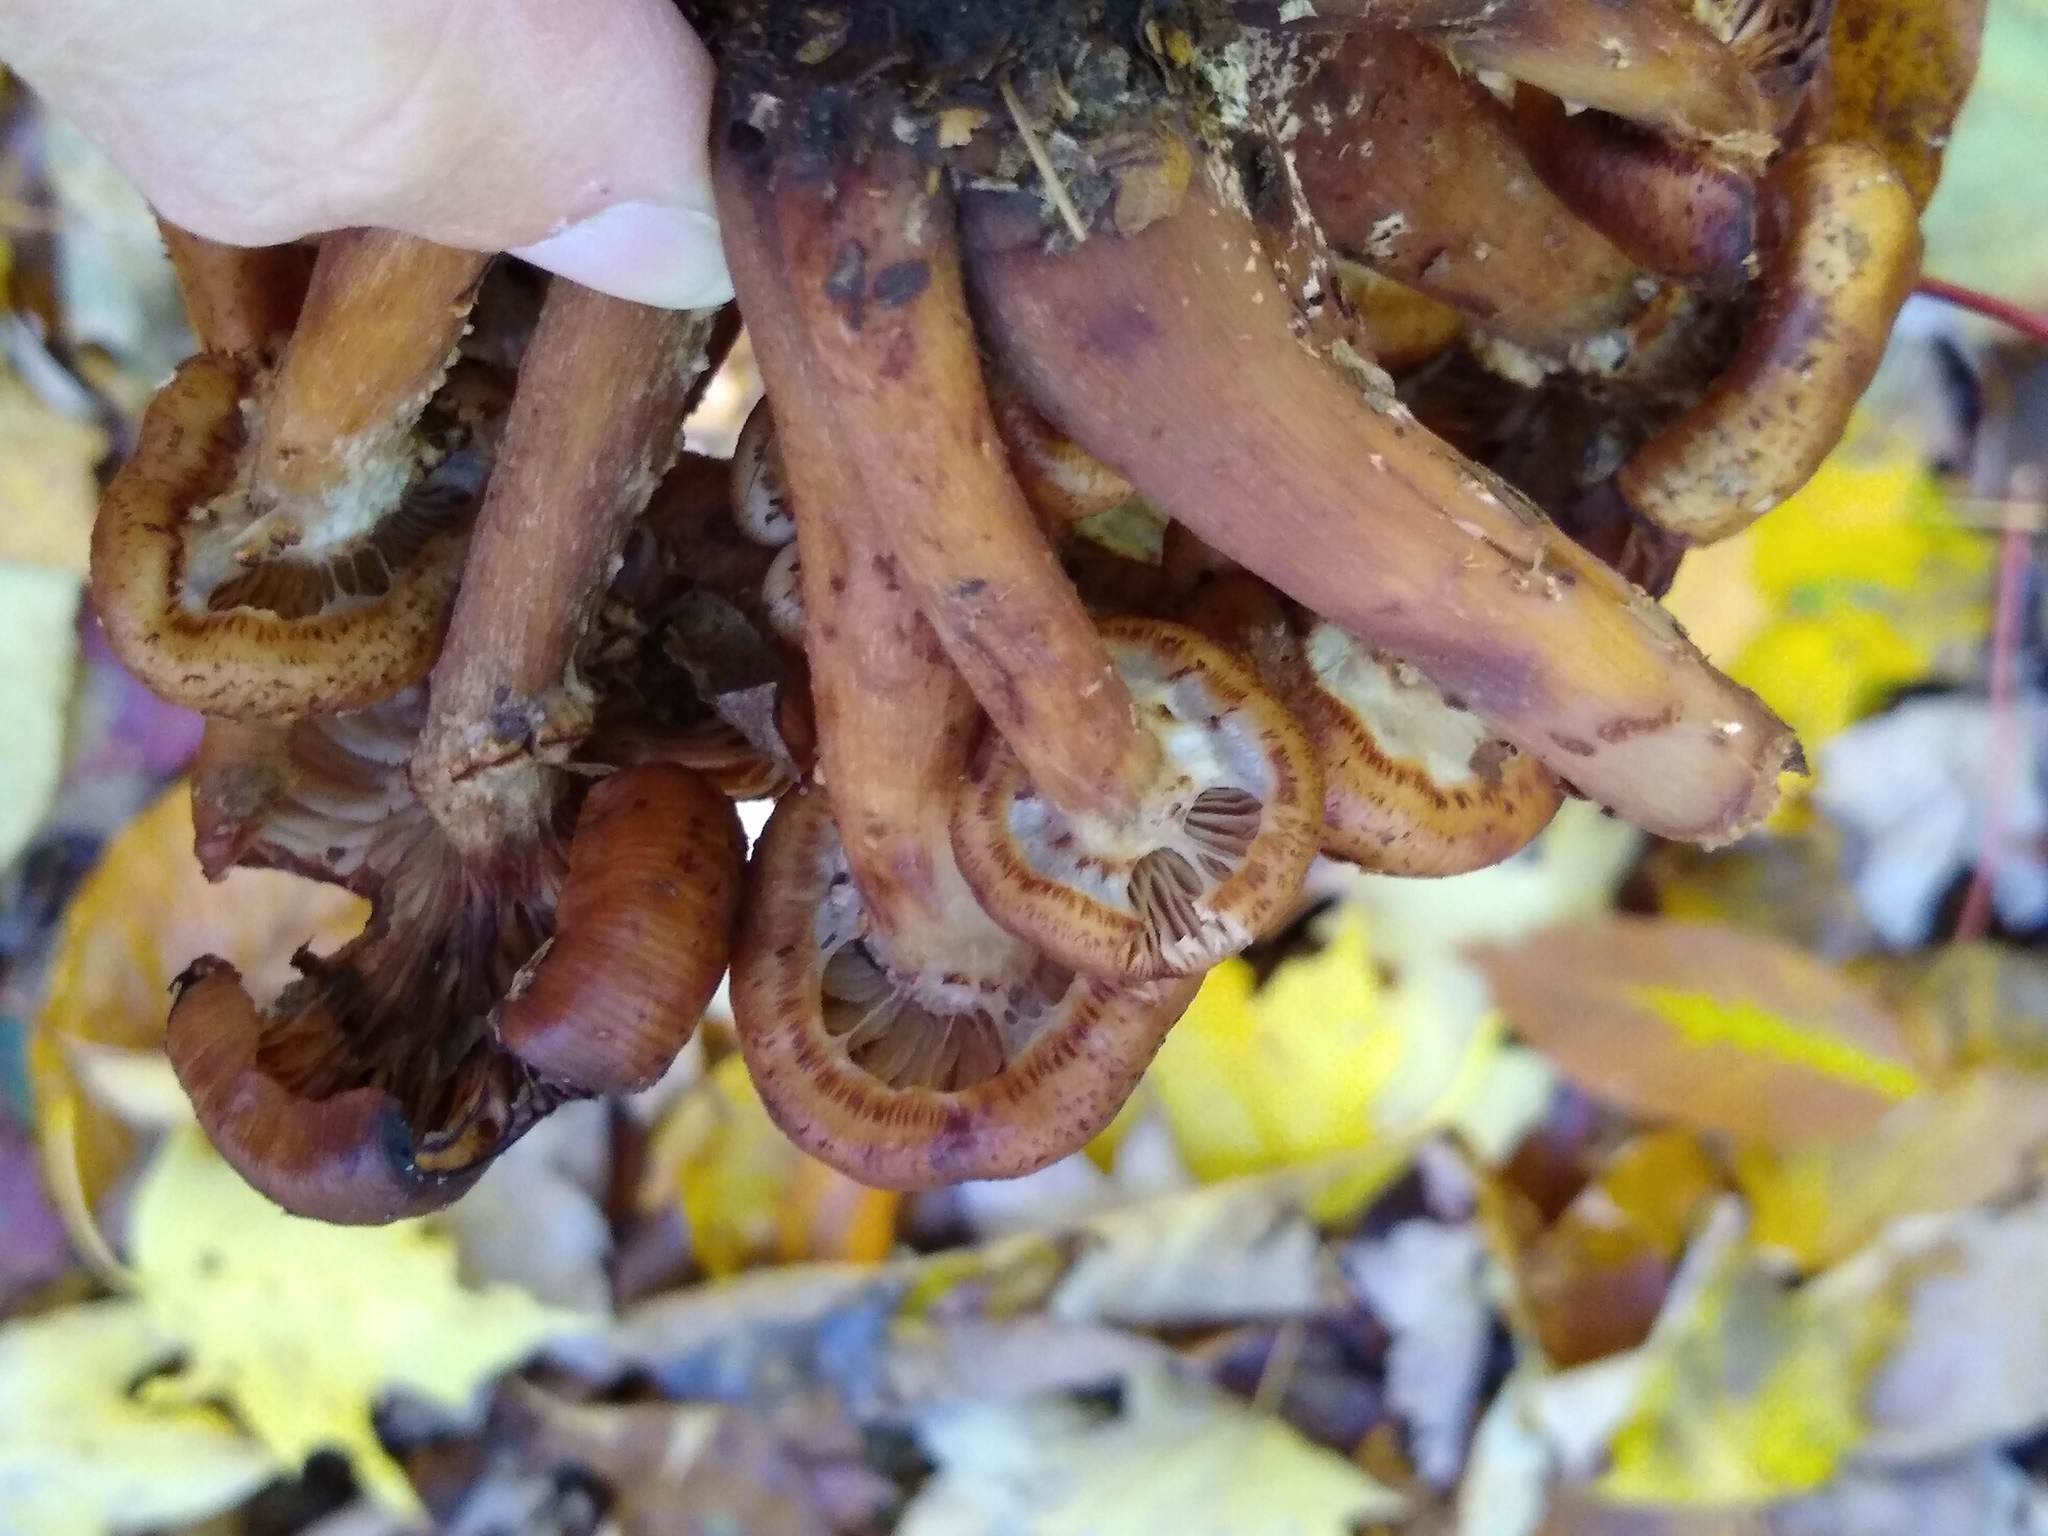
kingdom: Fungi
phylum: Basidiomycota
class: Agaricomycetes
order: Agaricales
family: Physalacriaceae
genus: Armillaria
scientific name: Armillaria mellea
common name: Honey fungus
